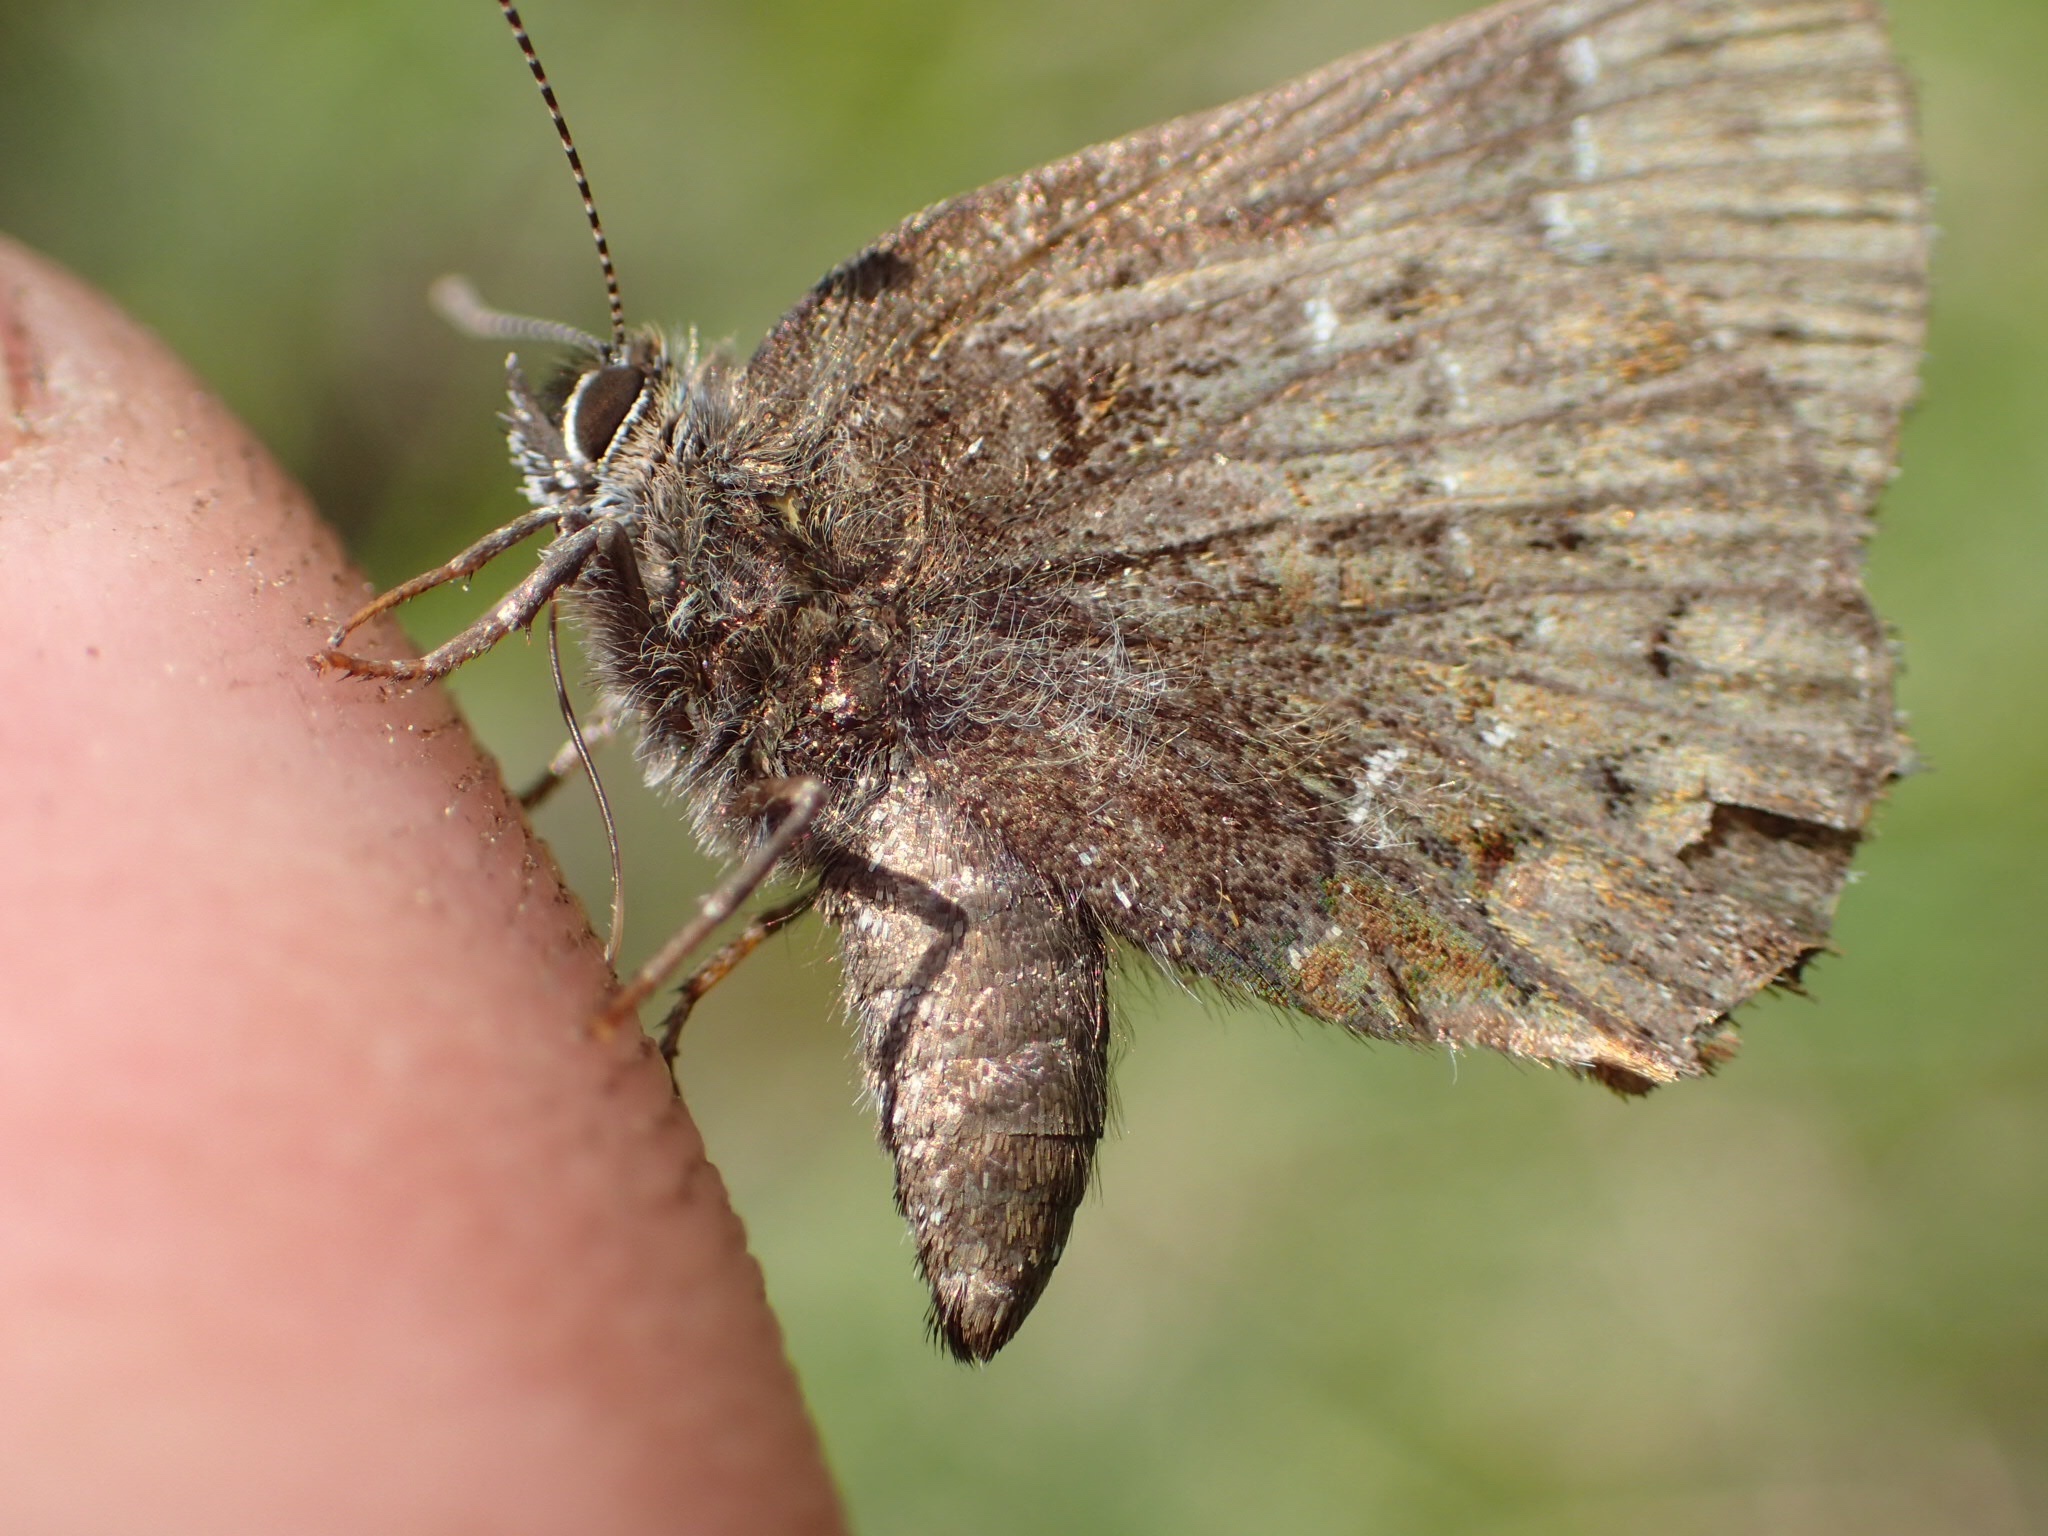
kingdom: Animalia
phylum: Arthropoda
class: Insecta
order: Lepidoptera
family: Lycaenidae
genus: Incisalia
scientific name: Incisalia niphon
